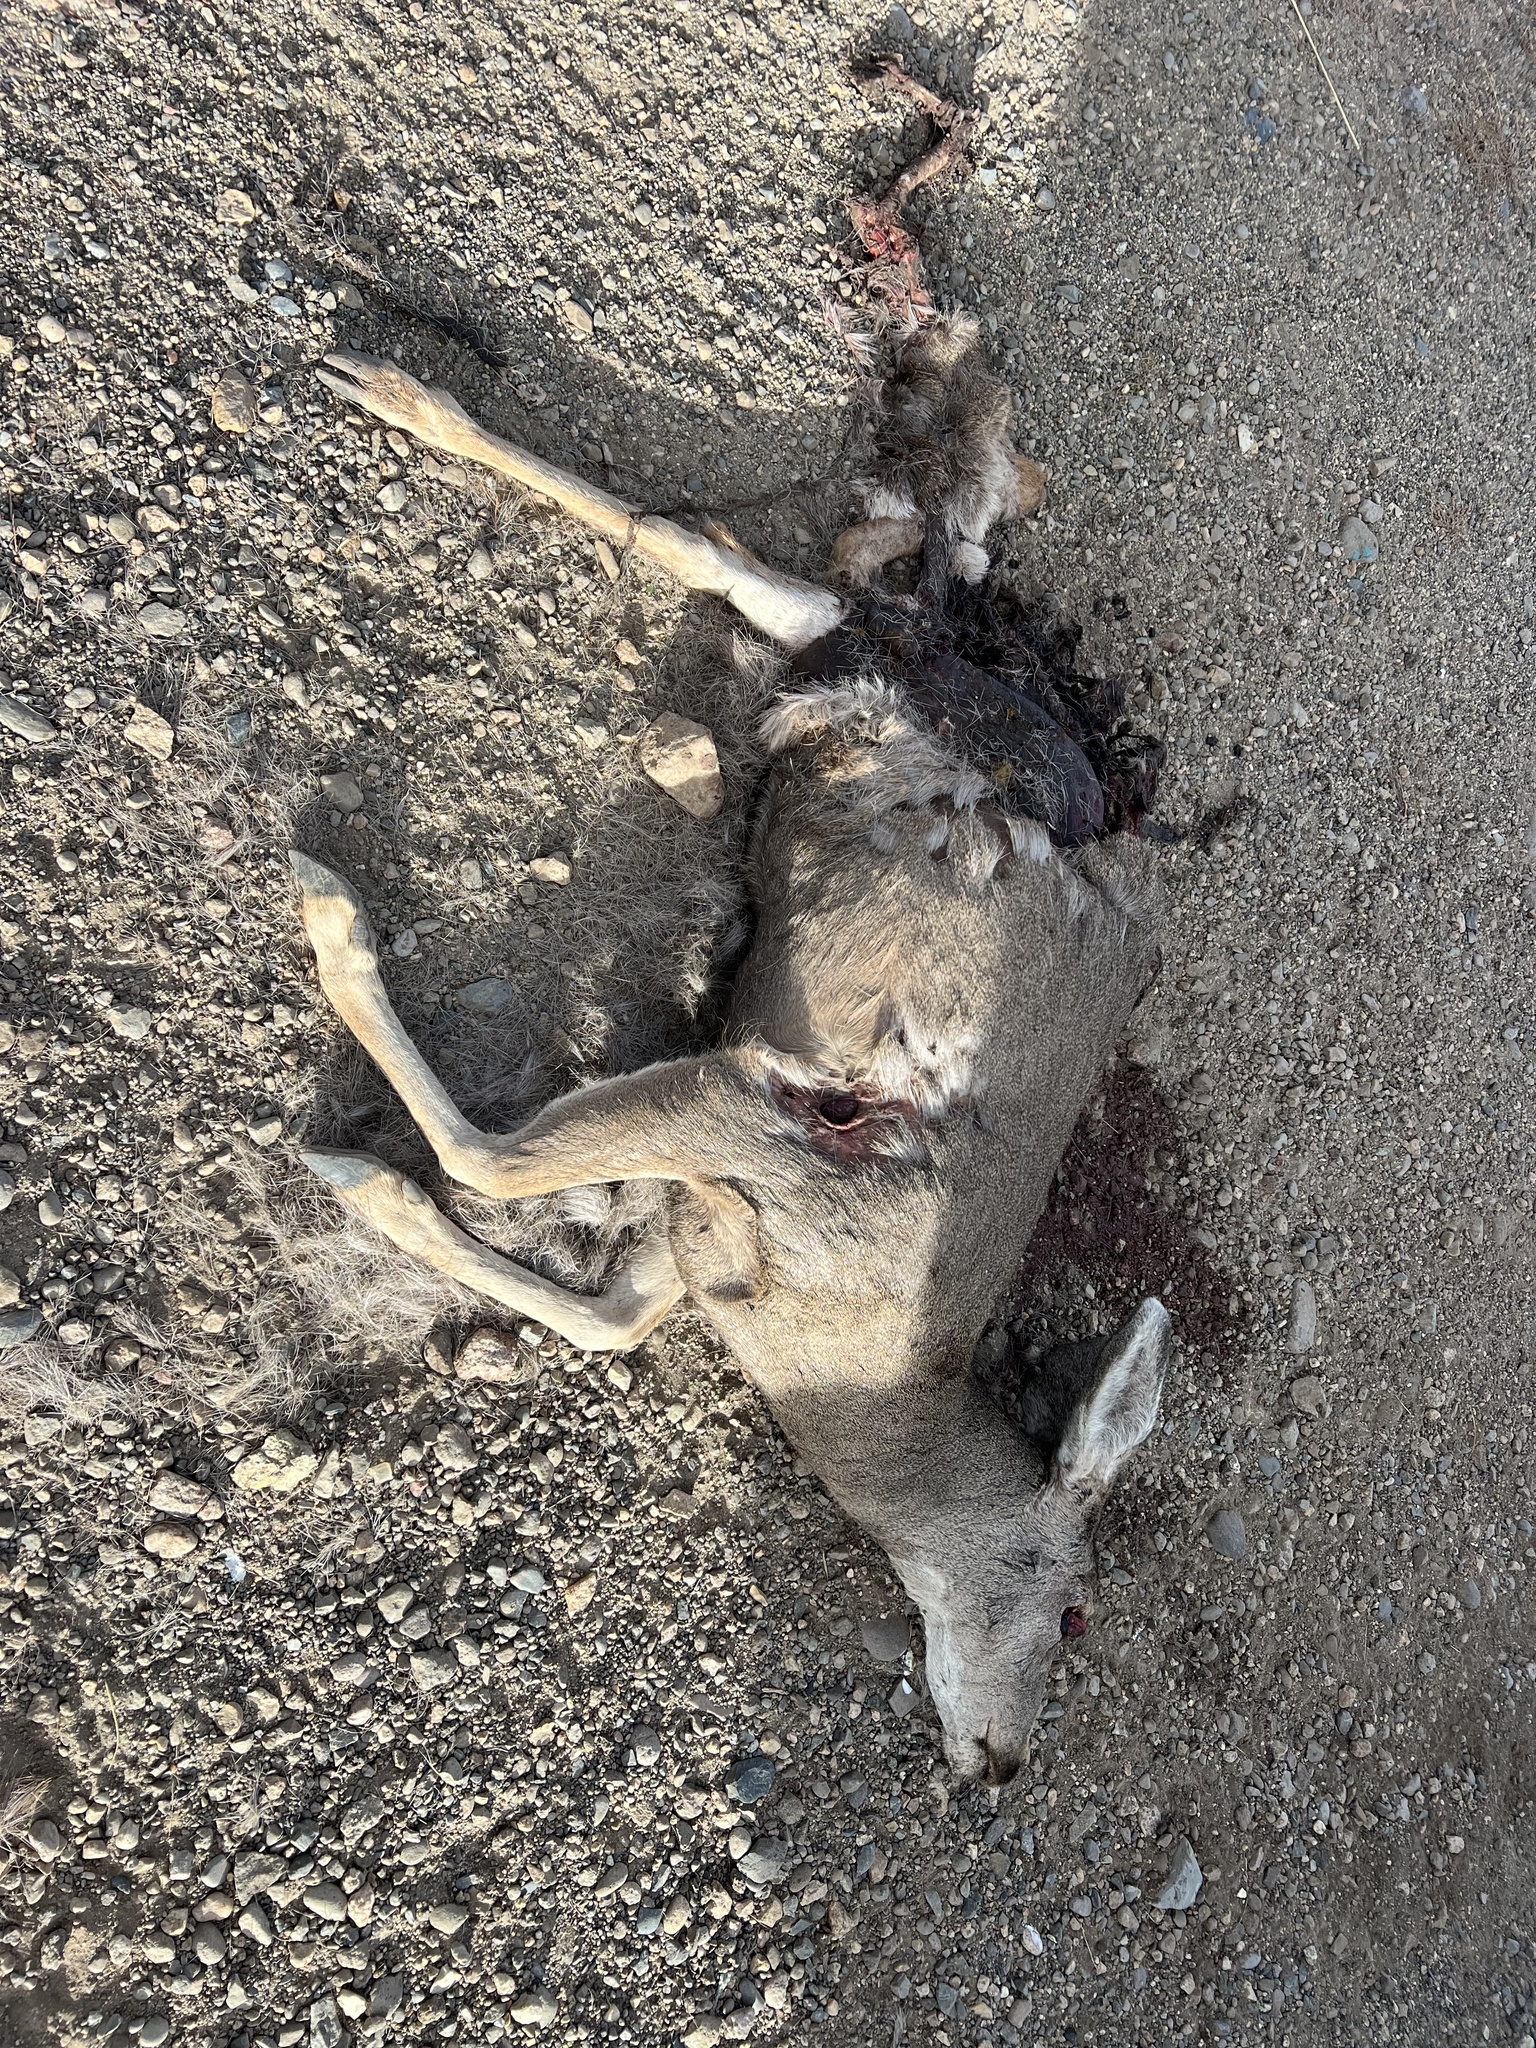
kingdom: Animalia
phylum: Chordata
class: Mammalia
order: Artiodactyla
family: Cervidae
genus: Odocoileus
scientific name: Odocoileus hemionus
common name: Mule deer
